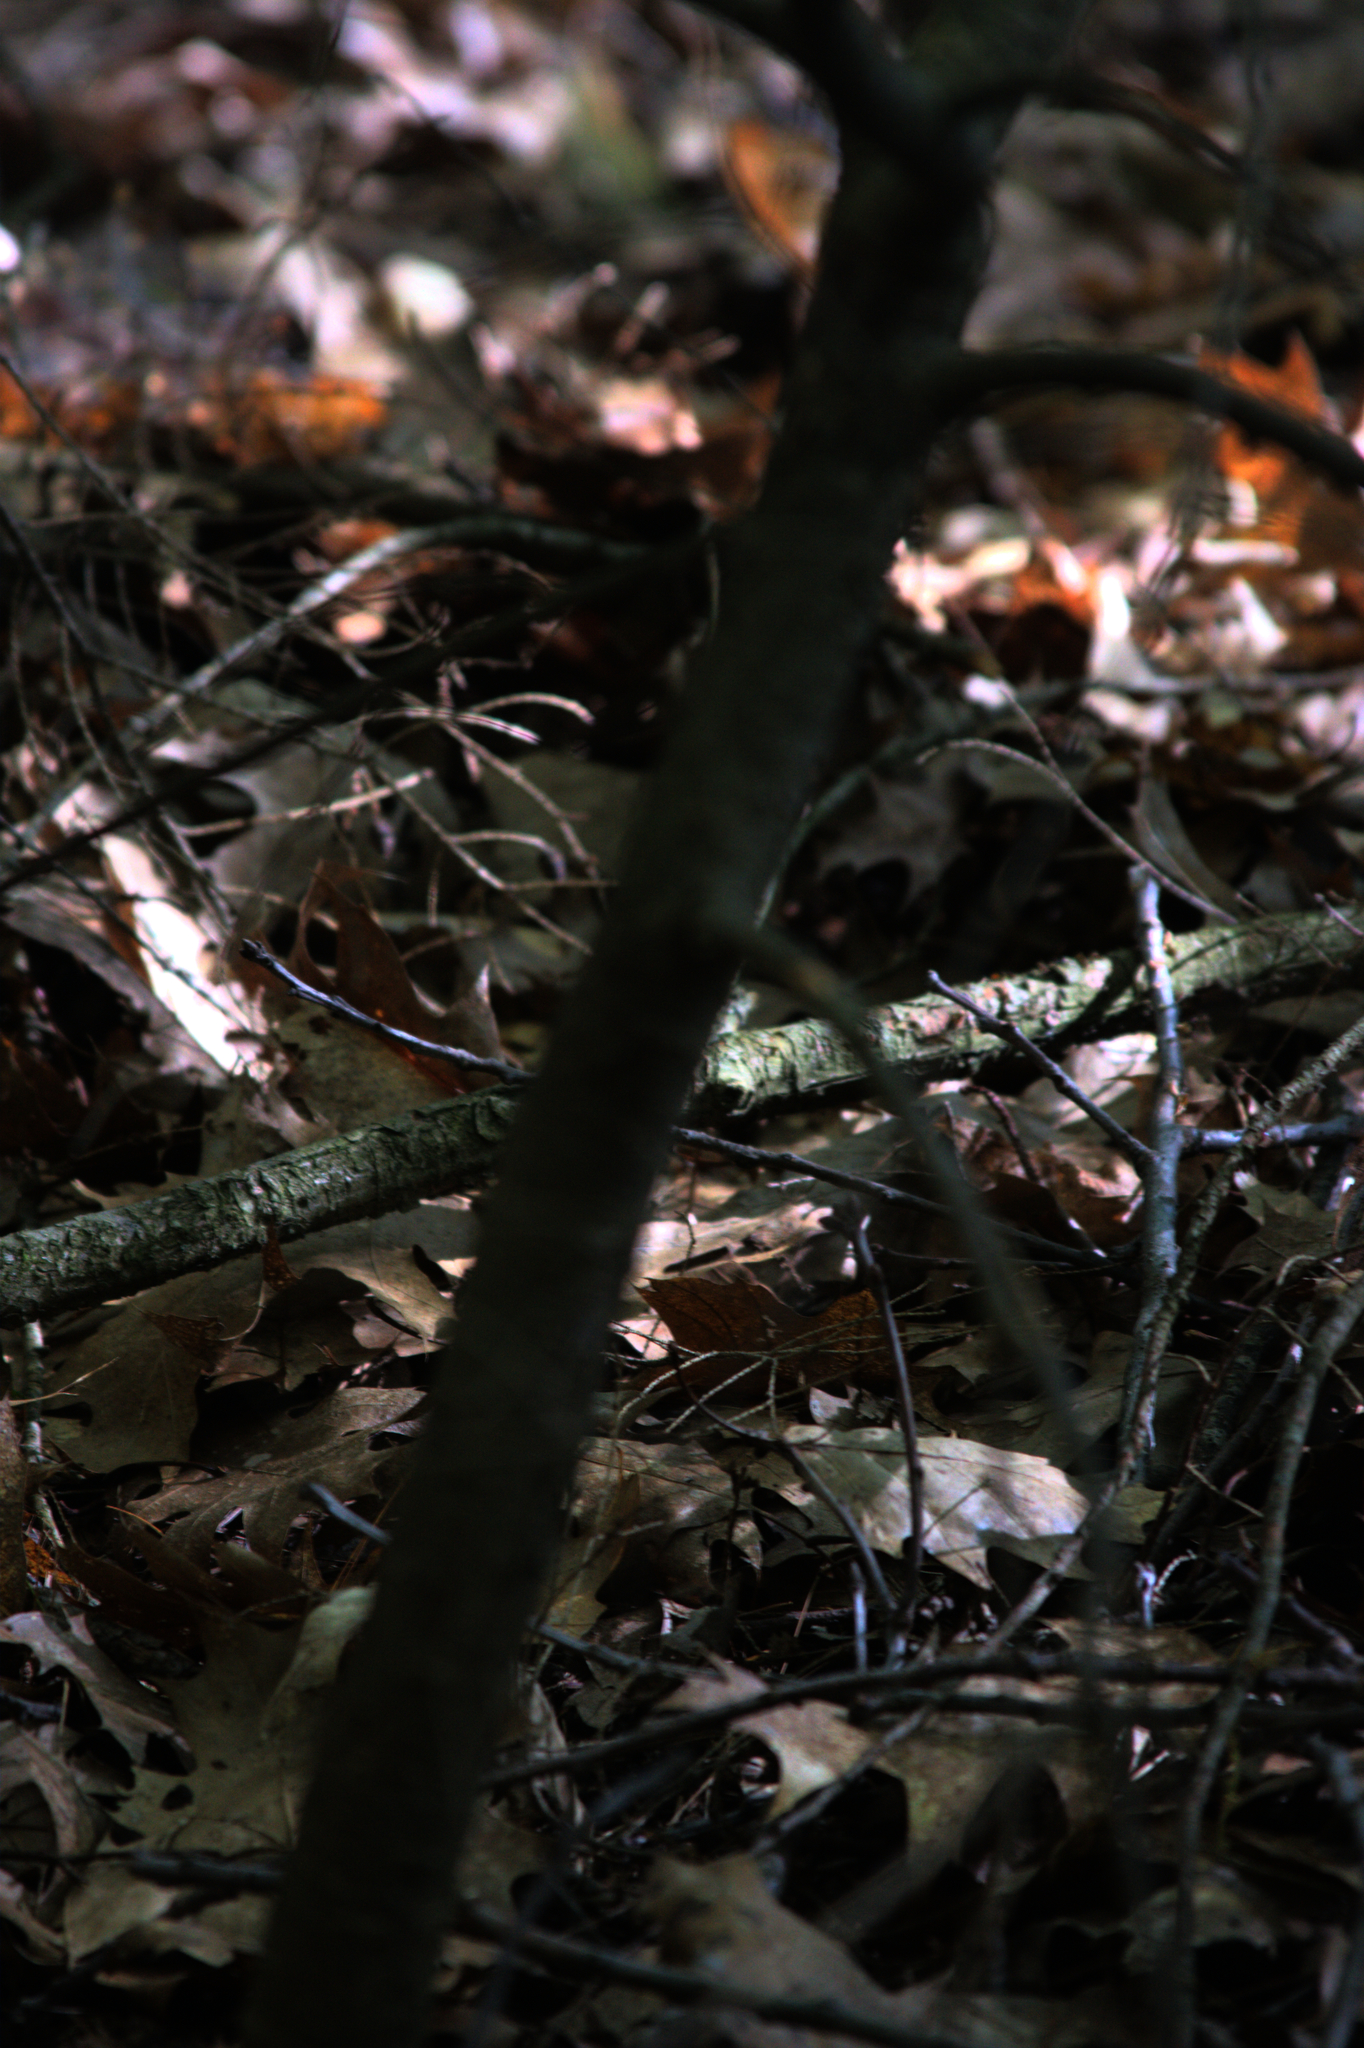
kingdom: Plantae
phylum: Tracheophyta
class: Pinopsida
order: Pinales
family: Pinaceae
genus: Tsuga
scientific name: Tsuga canadensis
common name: Eastern hemlock
